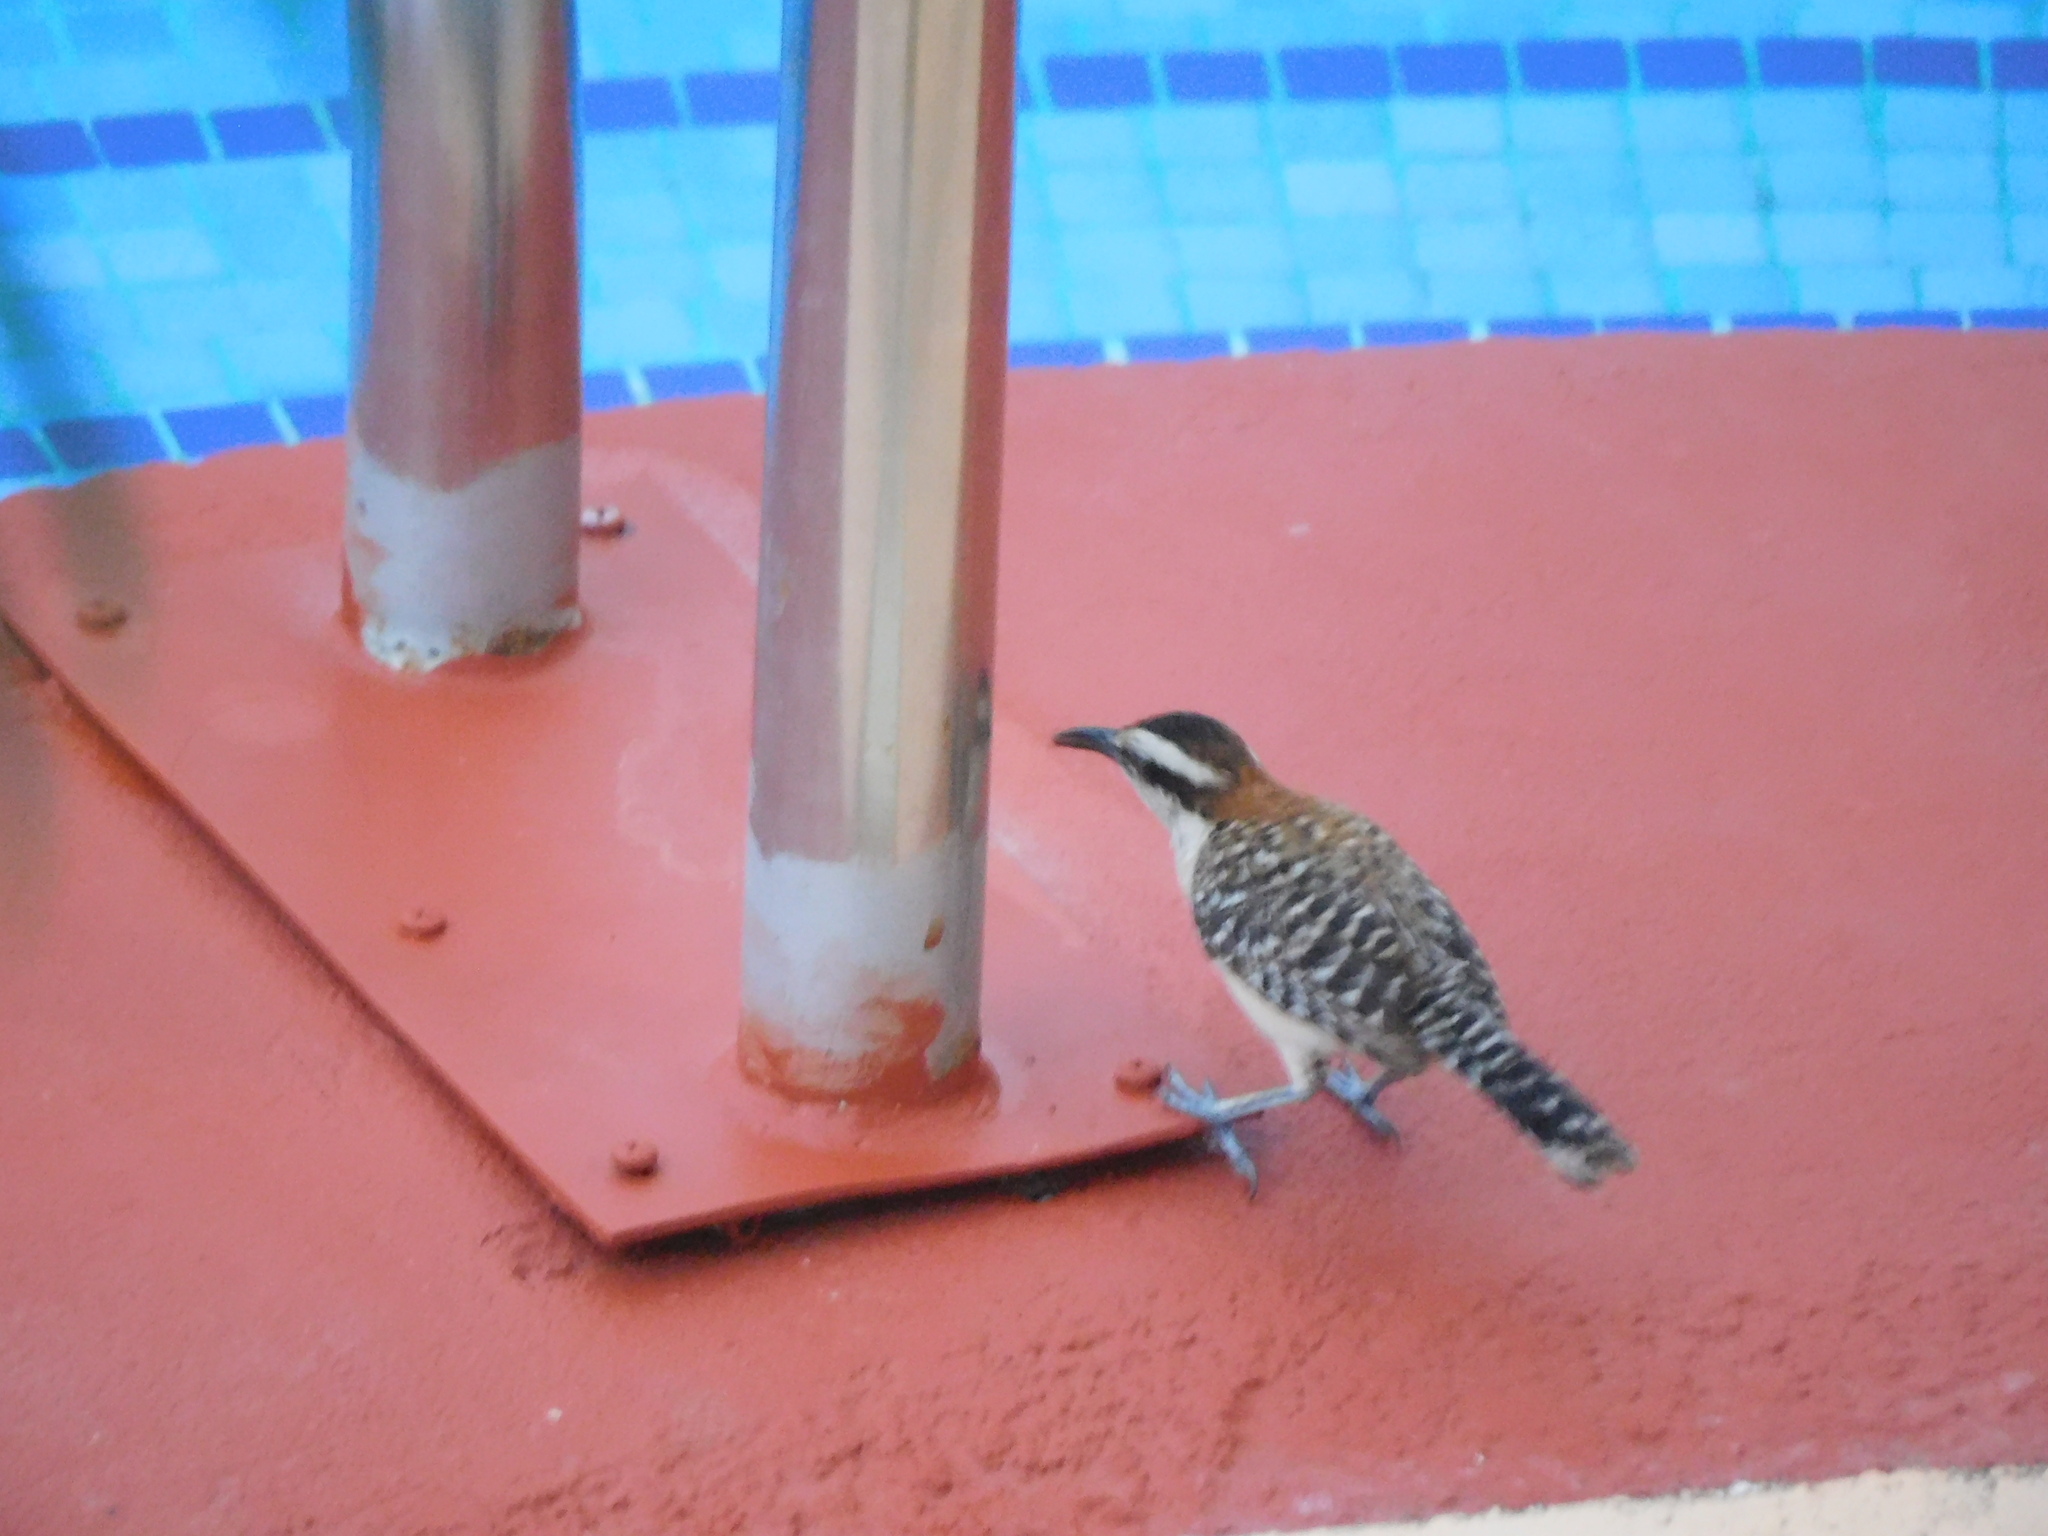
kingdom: Animalia
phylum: Chordata
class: Aves
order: Passeriformes
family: Troglodytidae
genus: Campylorhynchus
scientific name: Campylorhynchus rufinucha
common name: Rufous-naped wren
